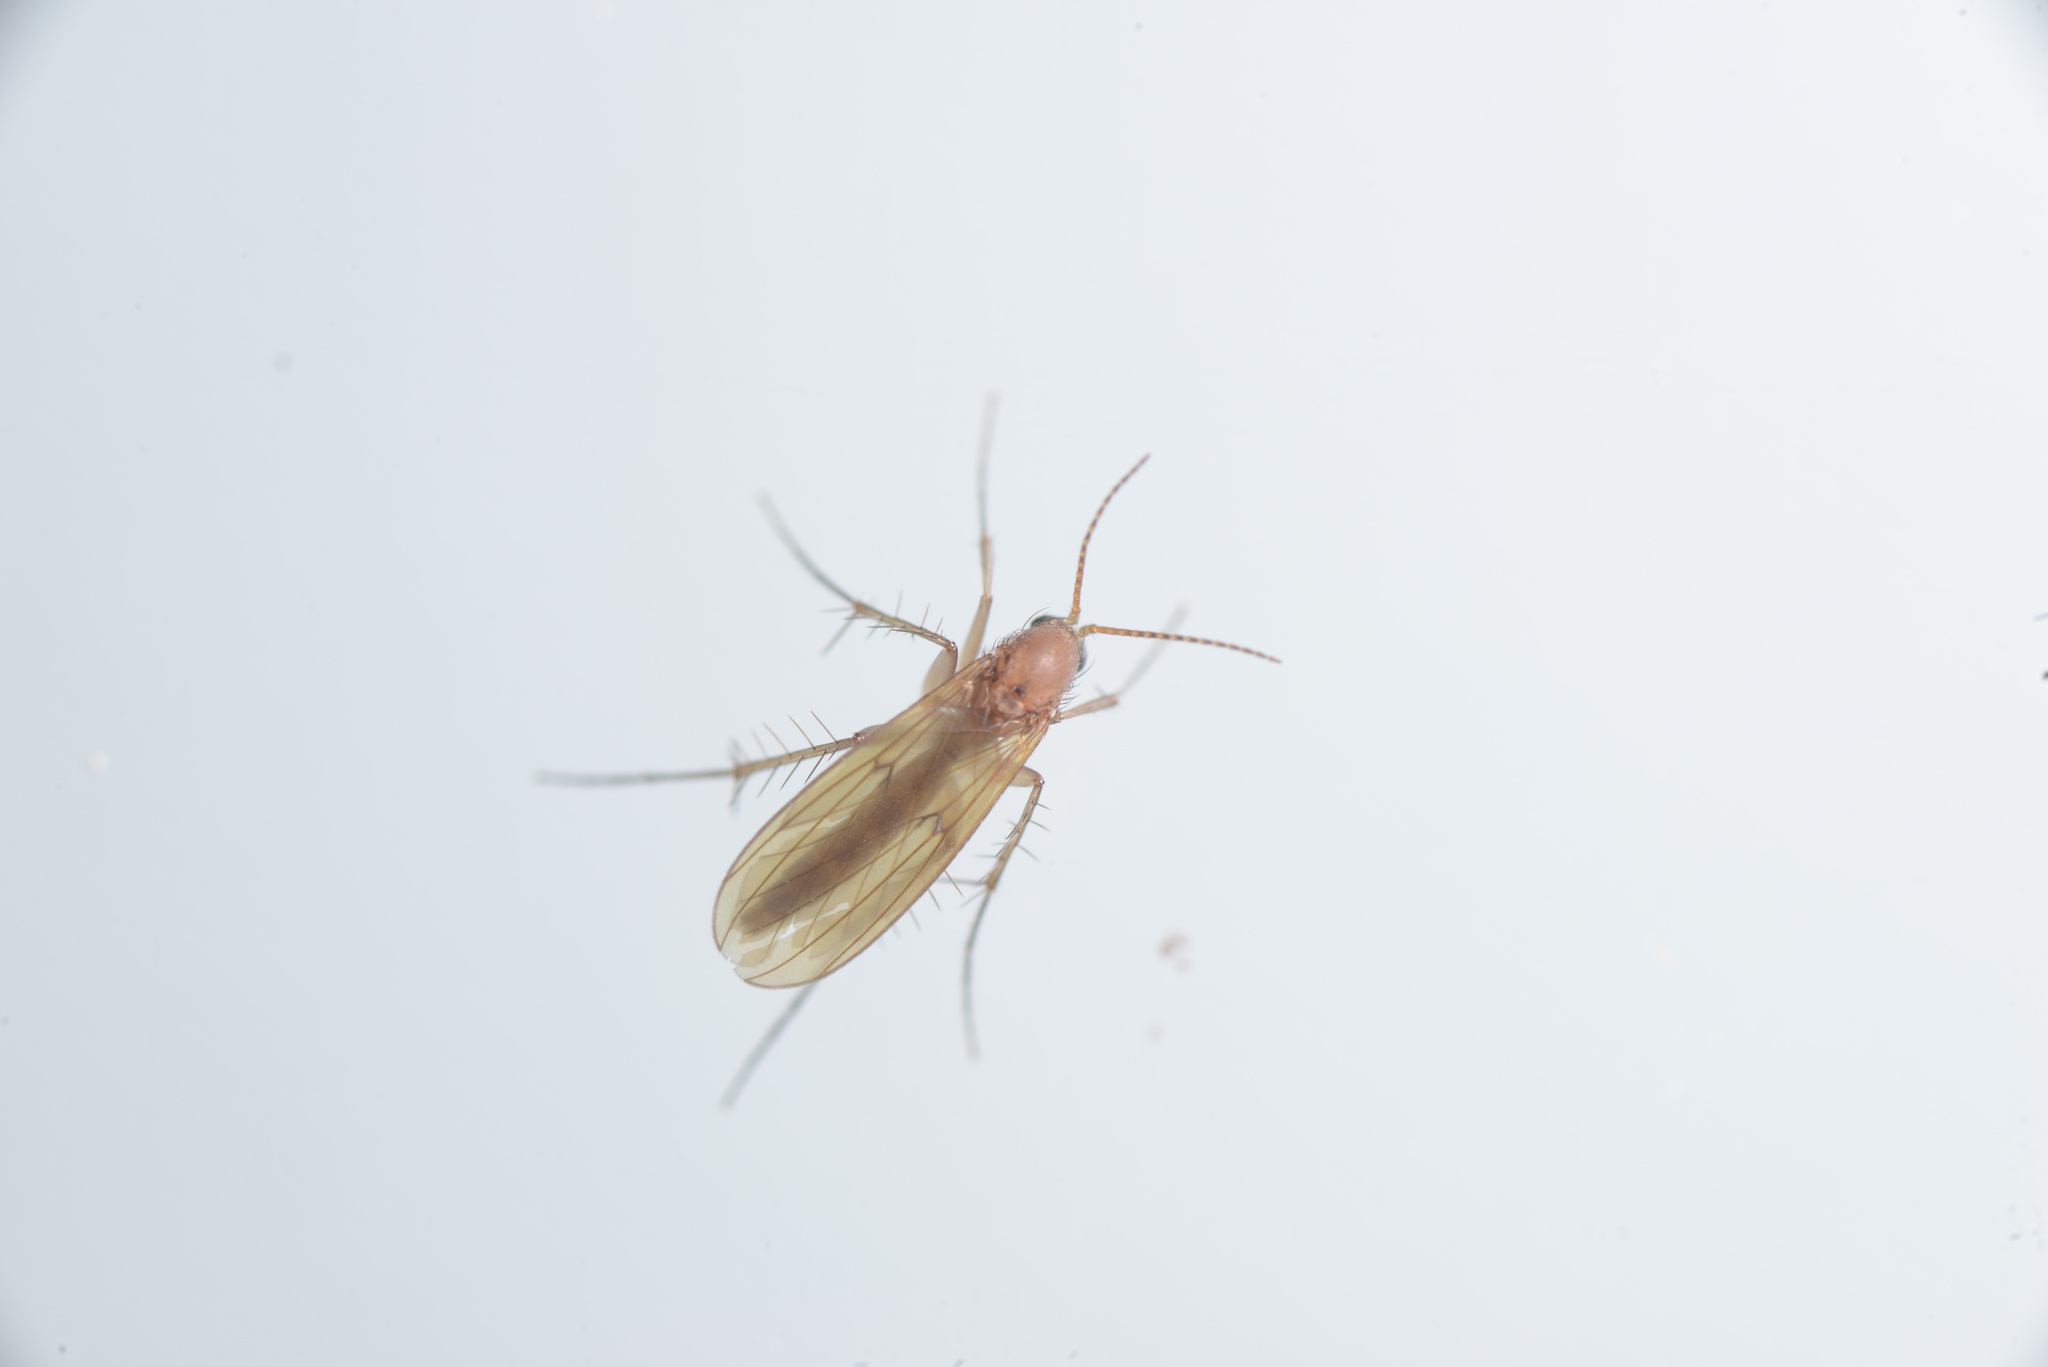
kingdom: Animalia
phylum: Arthropoda
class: Insecta
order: Diptera
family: Mycetophilidae
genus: Mycetophila
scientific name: Mycetophila fagi
